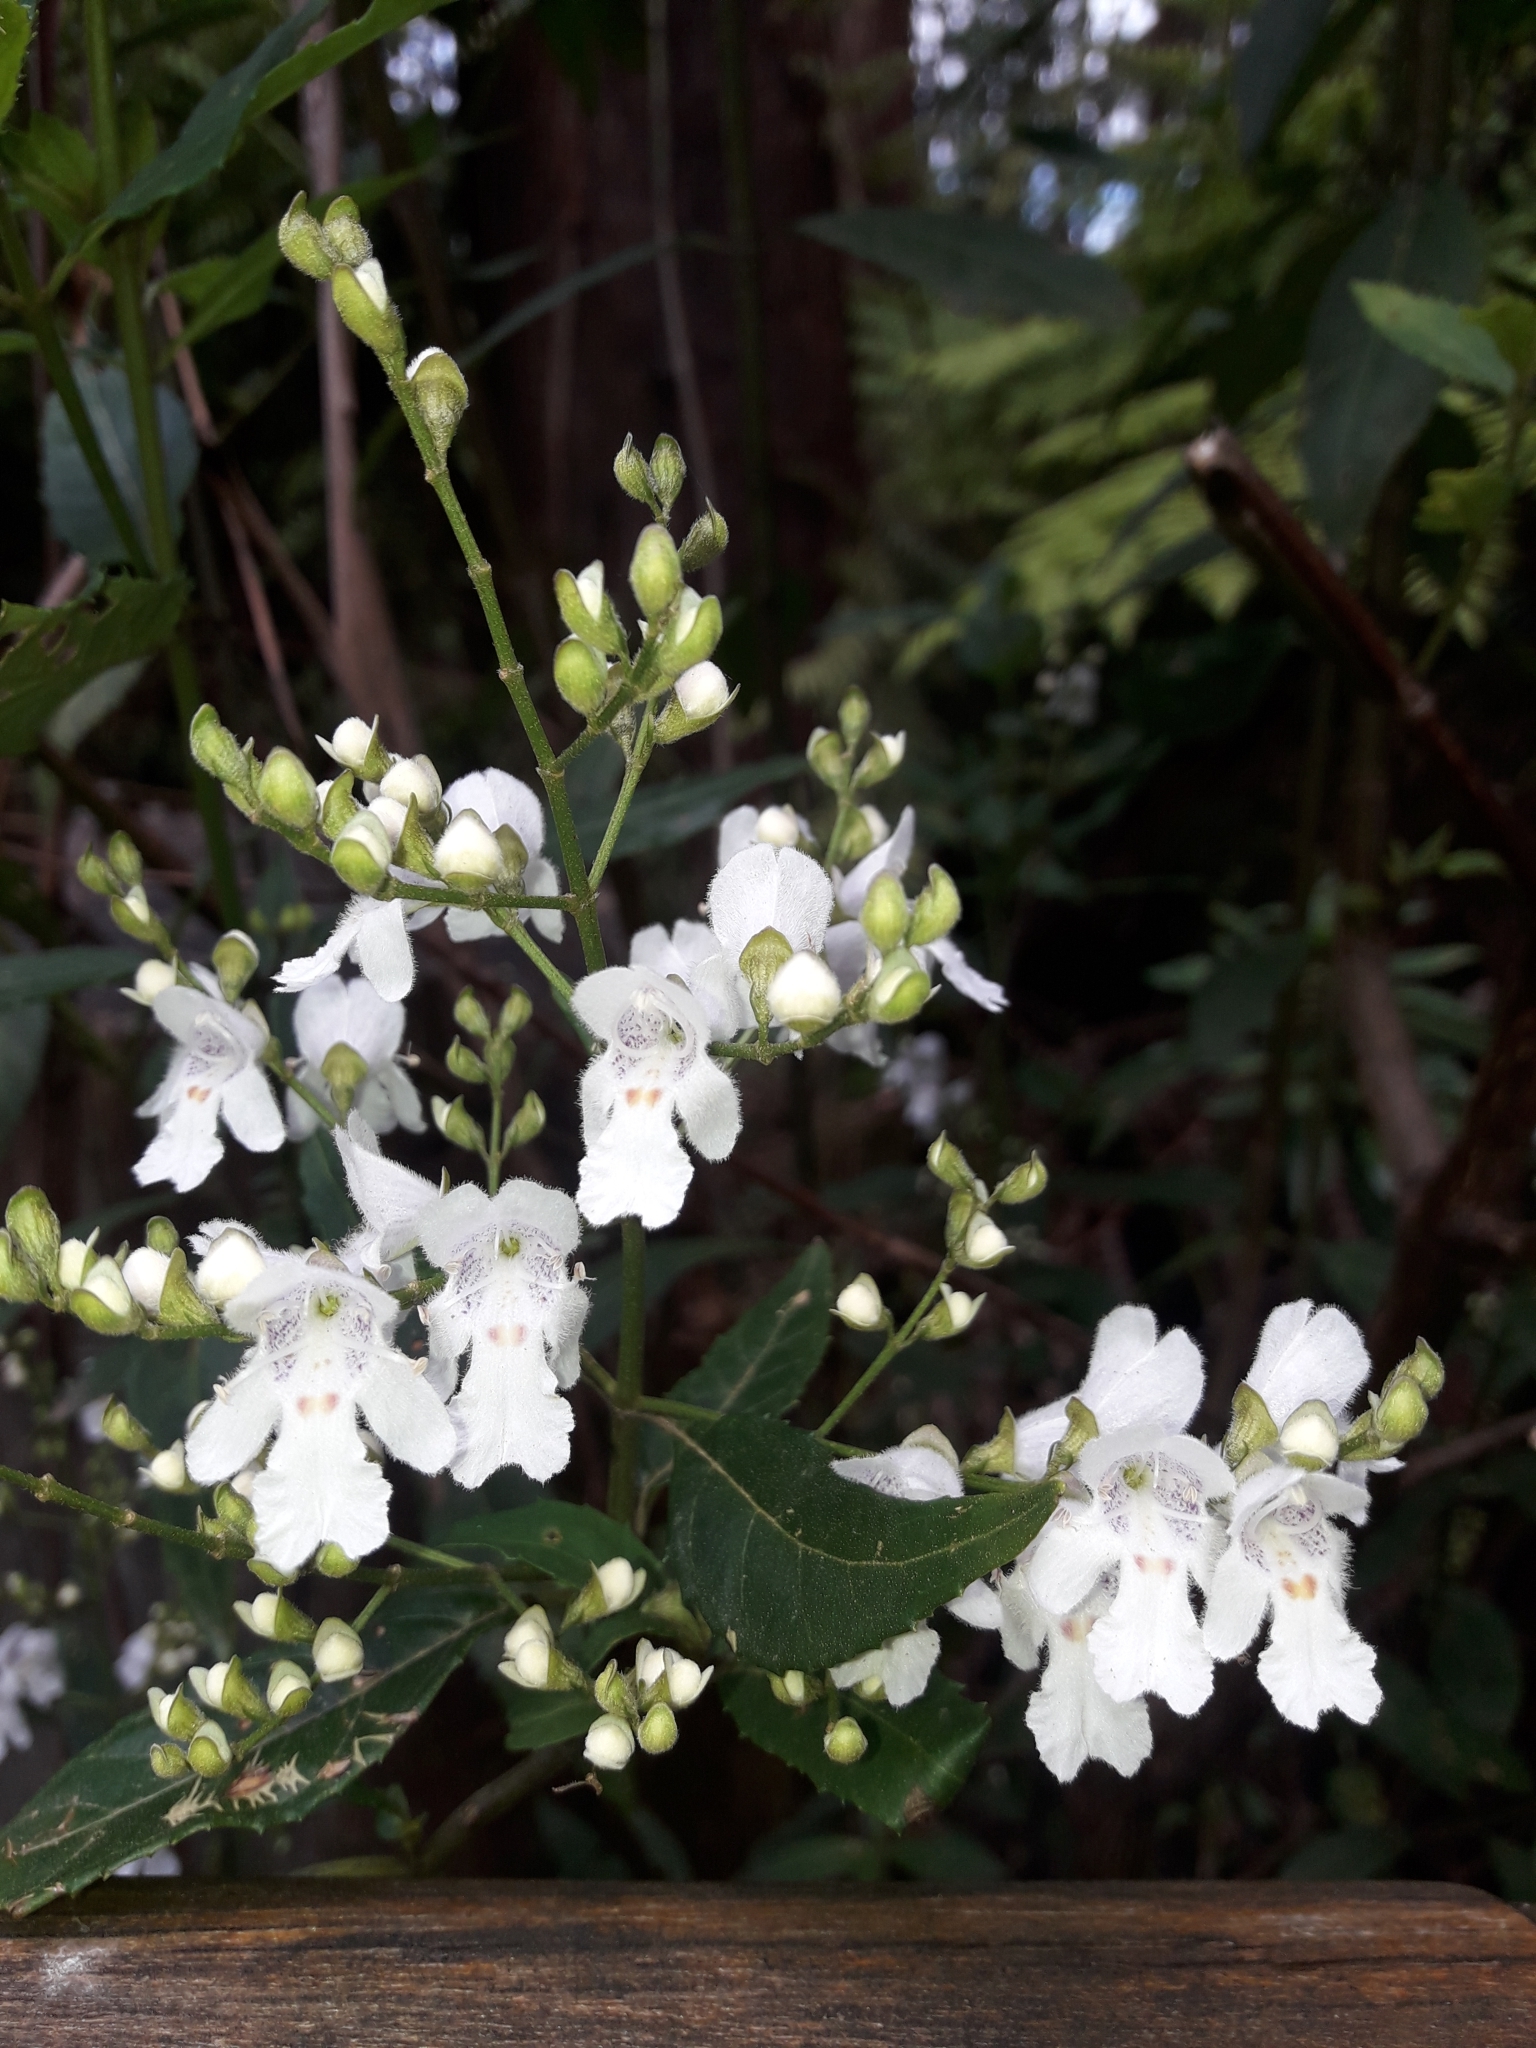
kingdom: Plantae
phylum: Tracheophyta
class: Magnoliopsida
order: Lamiales
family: Lamiaceae
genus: Prostanthera
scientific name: Prostanthera lasianthos
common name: Mountain-lilac
